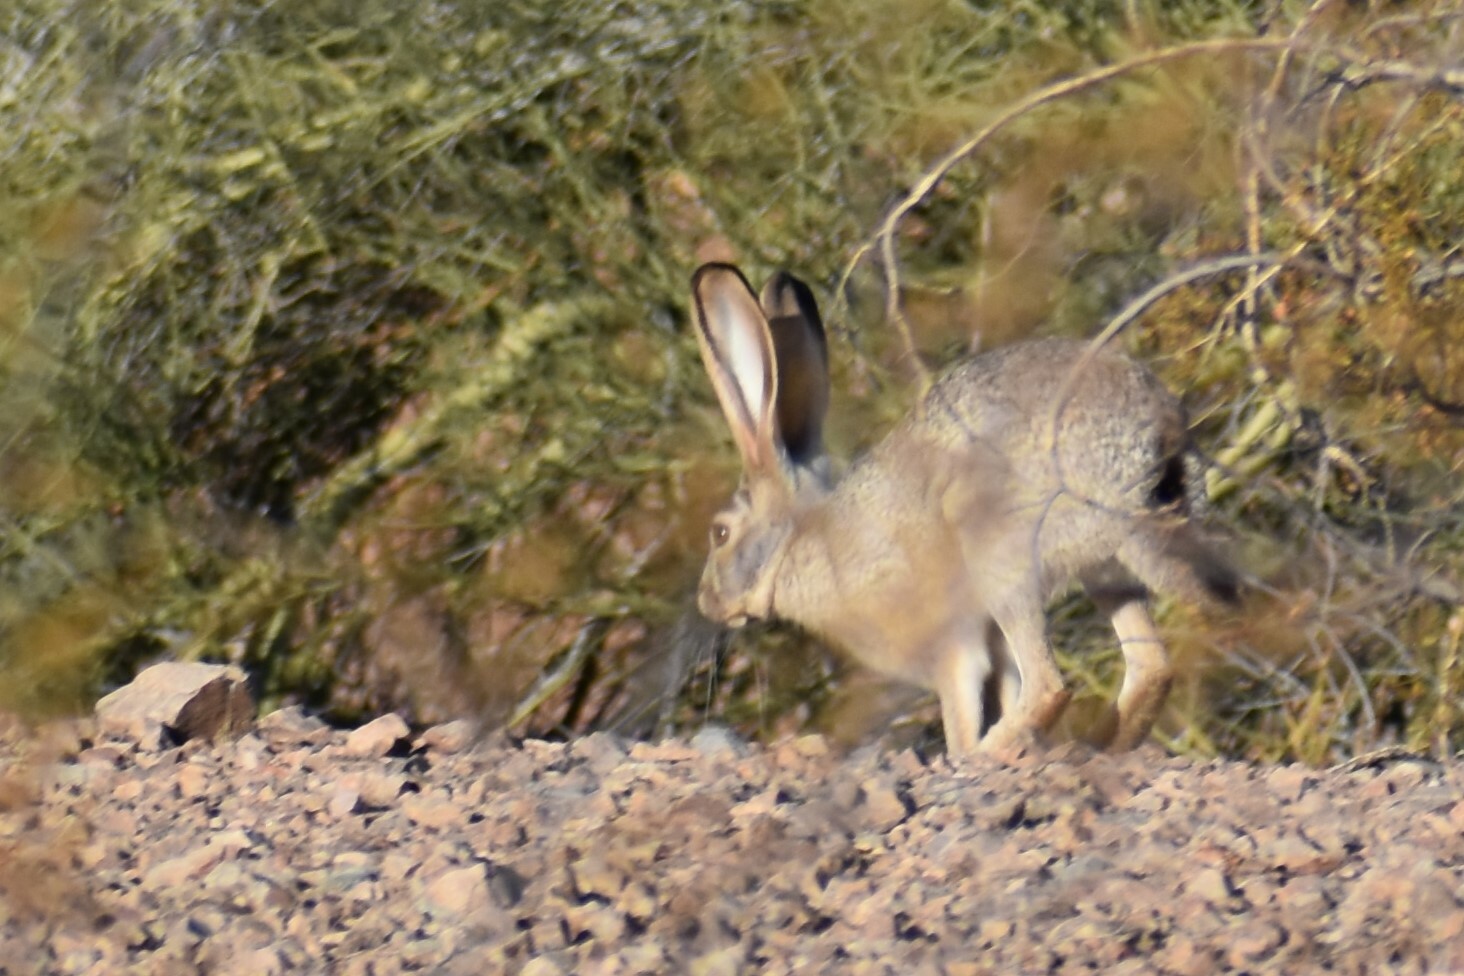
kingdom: Animalia
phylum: Chordata
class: Mammalia
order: Lagomorpha
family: Leporidae
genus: Lepus
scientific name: Lepus californicus
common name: Black-tailed jackrabbit
